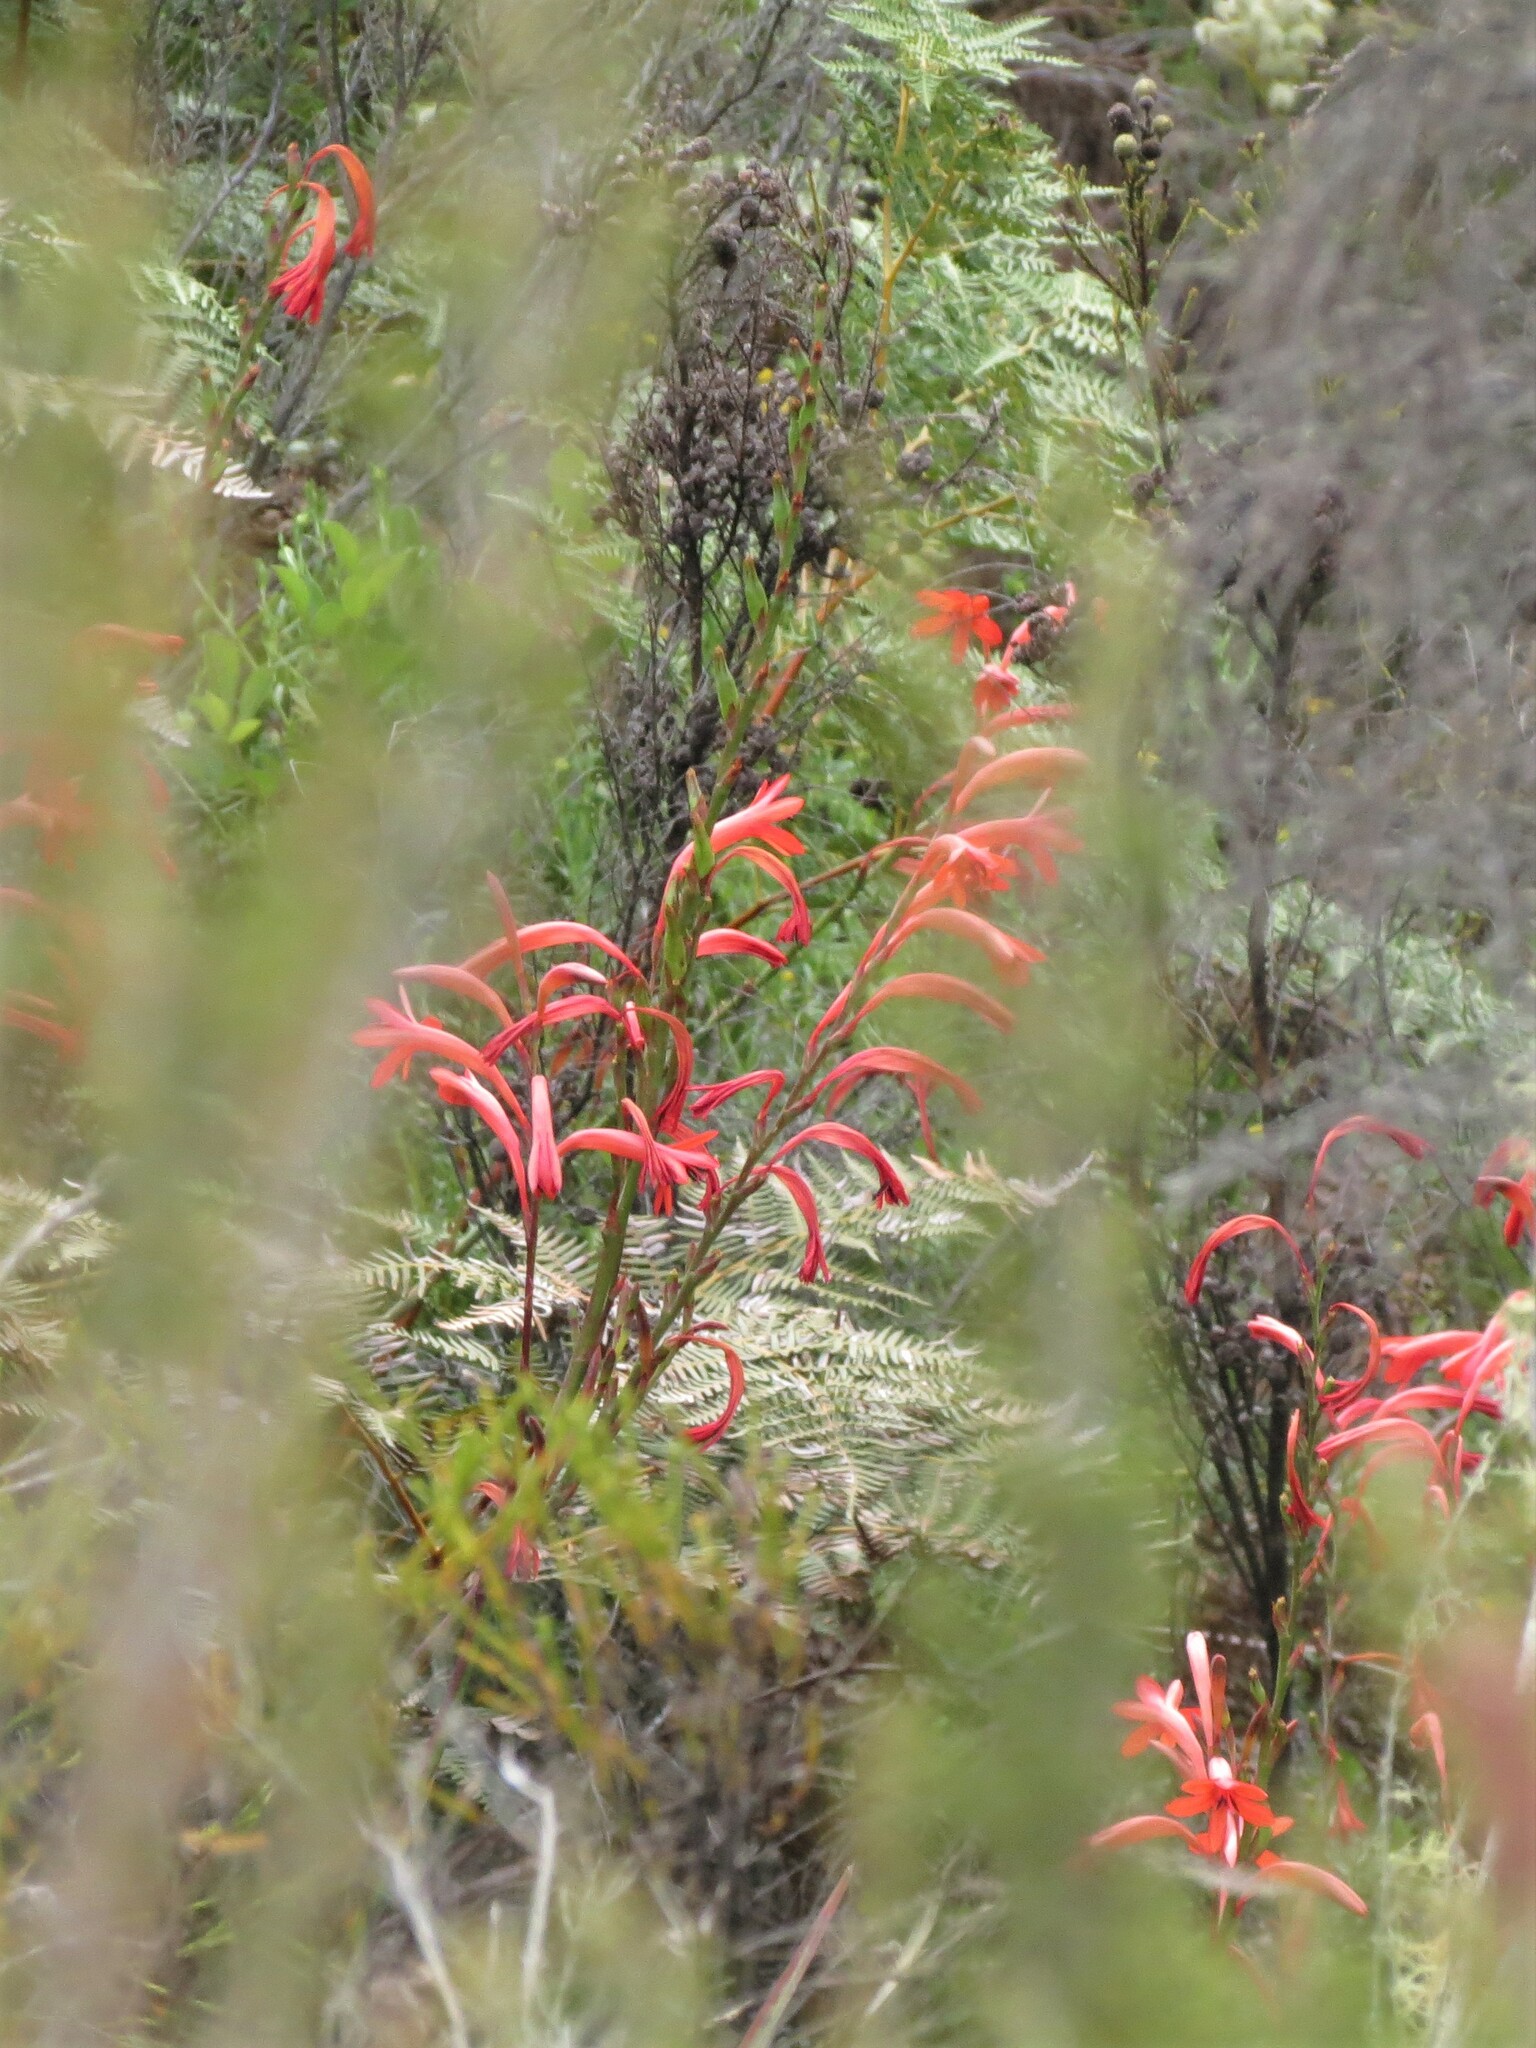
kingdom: Plantae
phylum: Tracheophyta
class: Liliopsida
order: Asparagales
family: Iridaceae
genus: Watsonia
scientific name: Watsonia angusta
